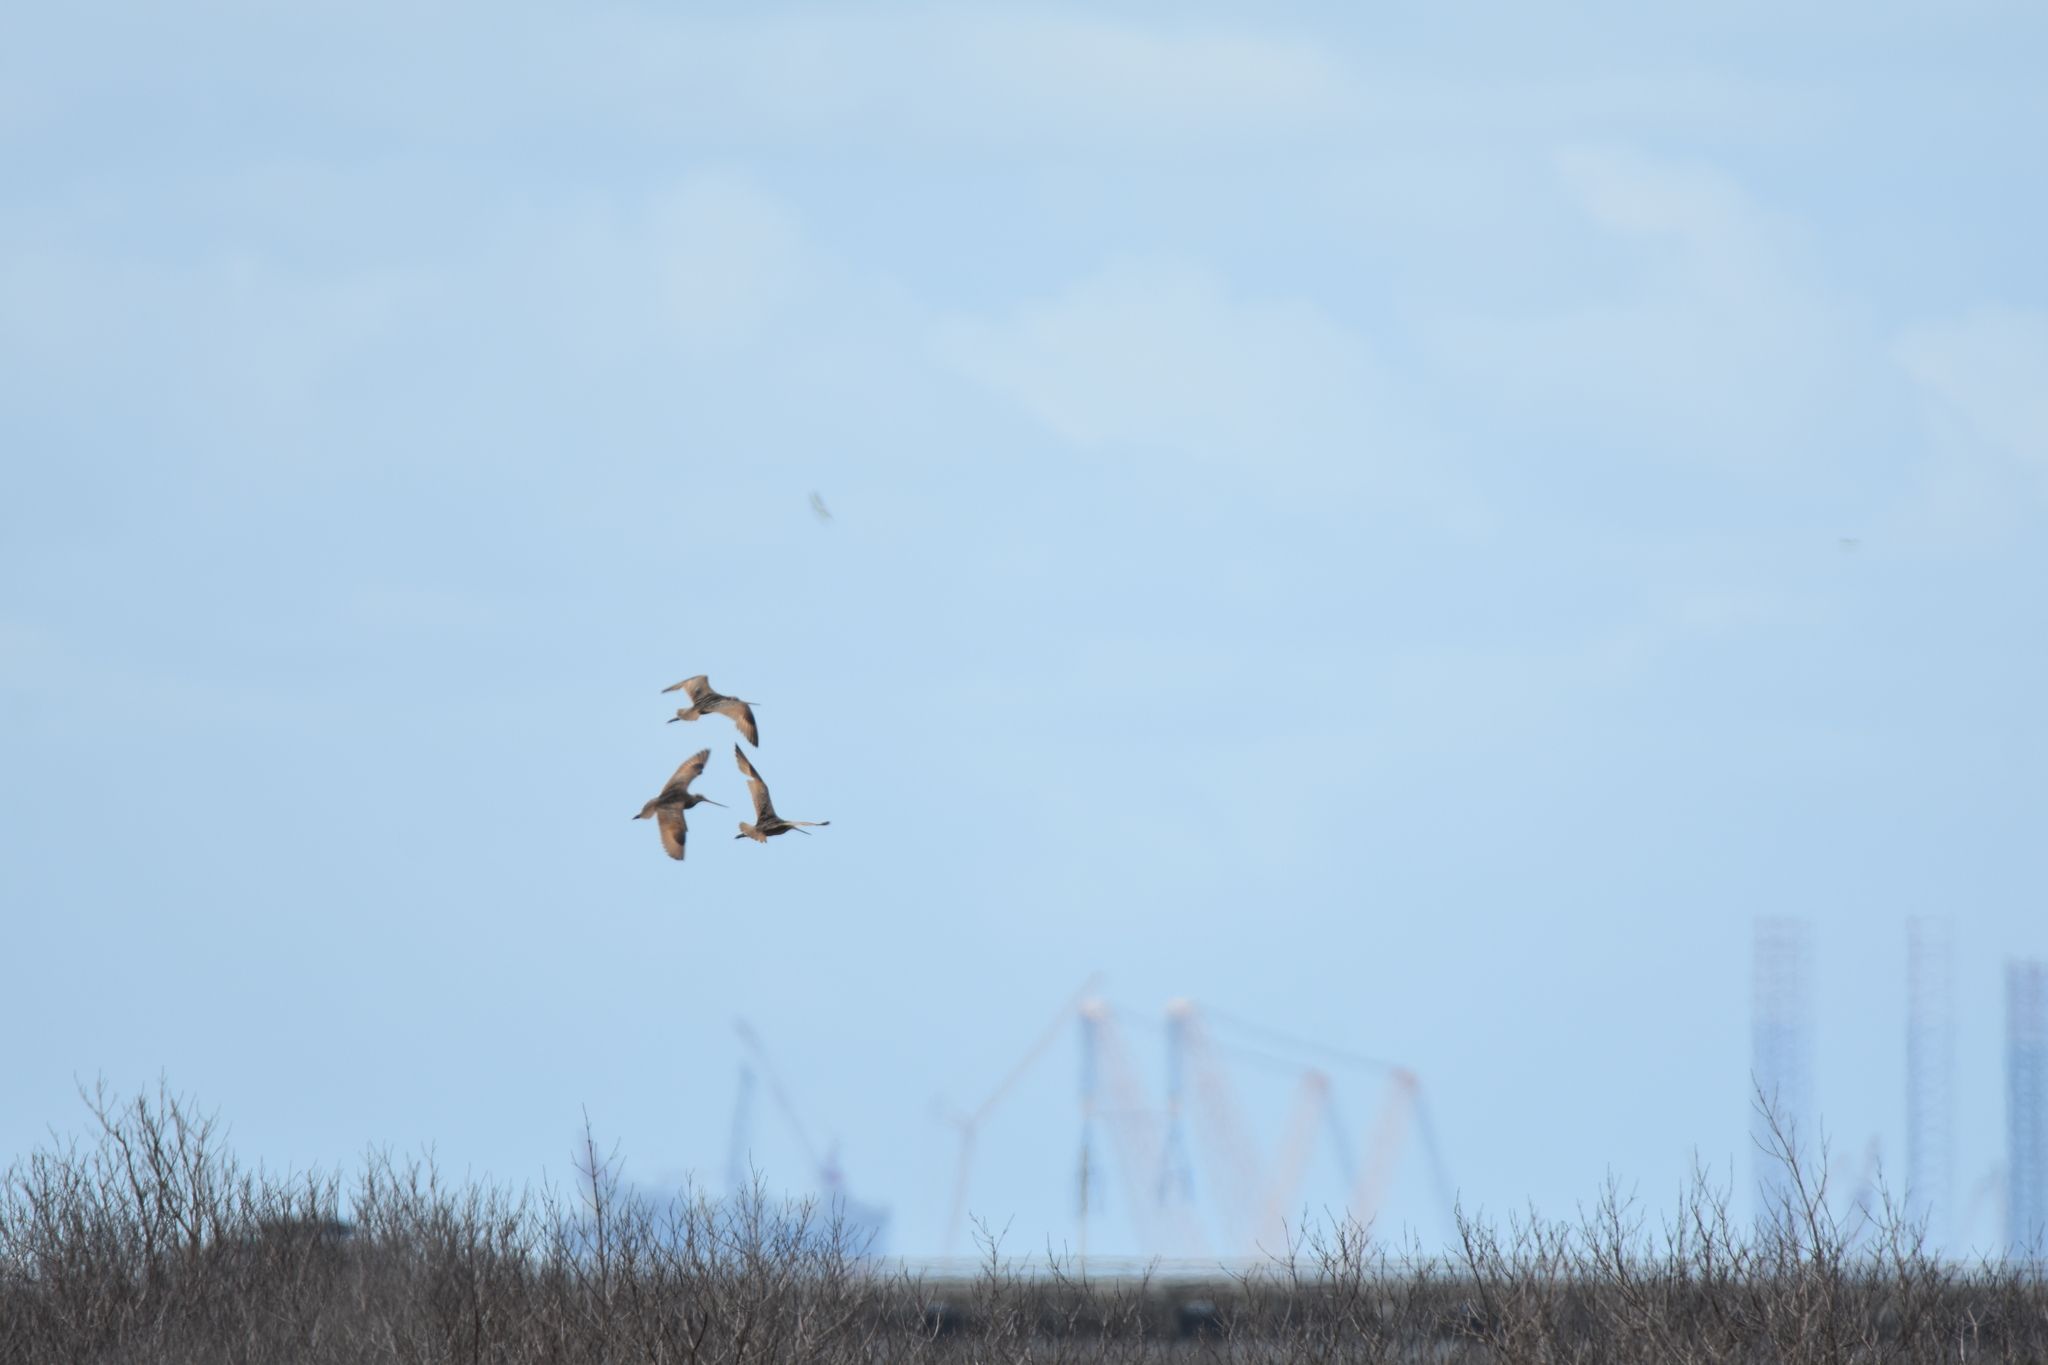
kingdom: Animalia
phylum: Chordata
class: Aves
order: Charadriiformes
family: Scolopacidae
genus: Limosa
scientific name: Limosa fedoa
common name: Marbled godwit
